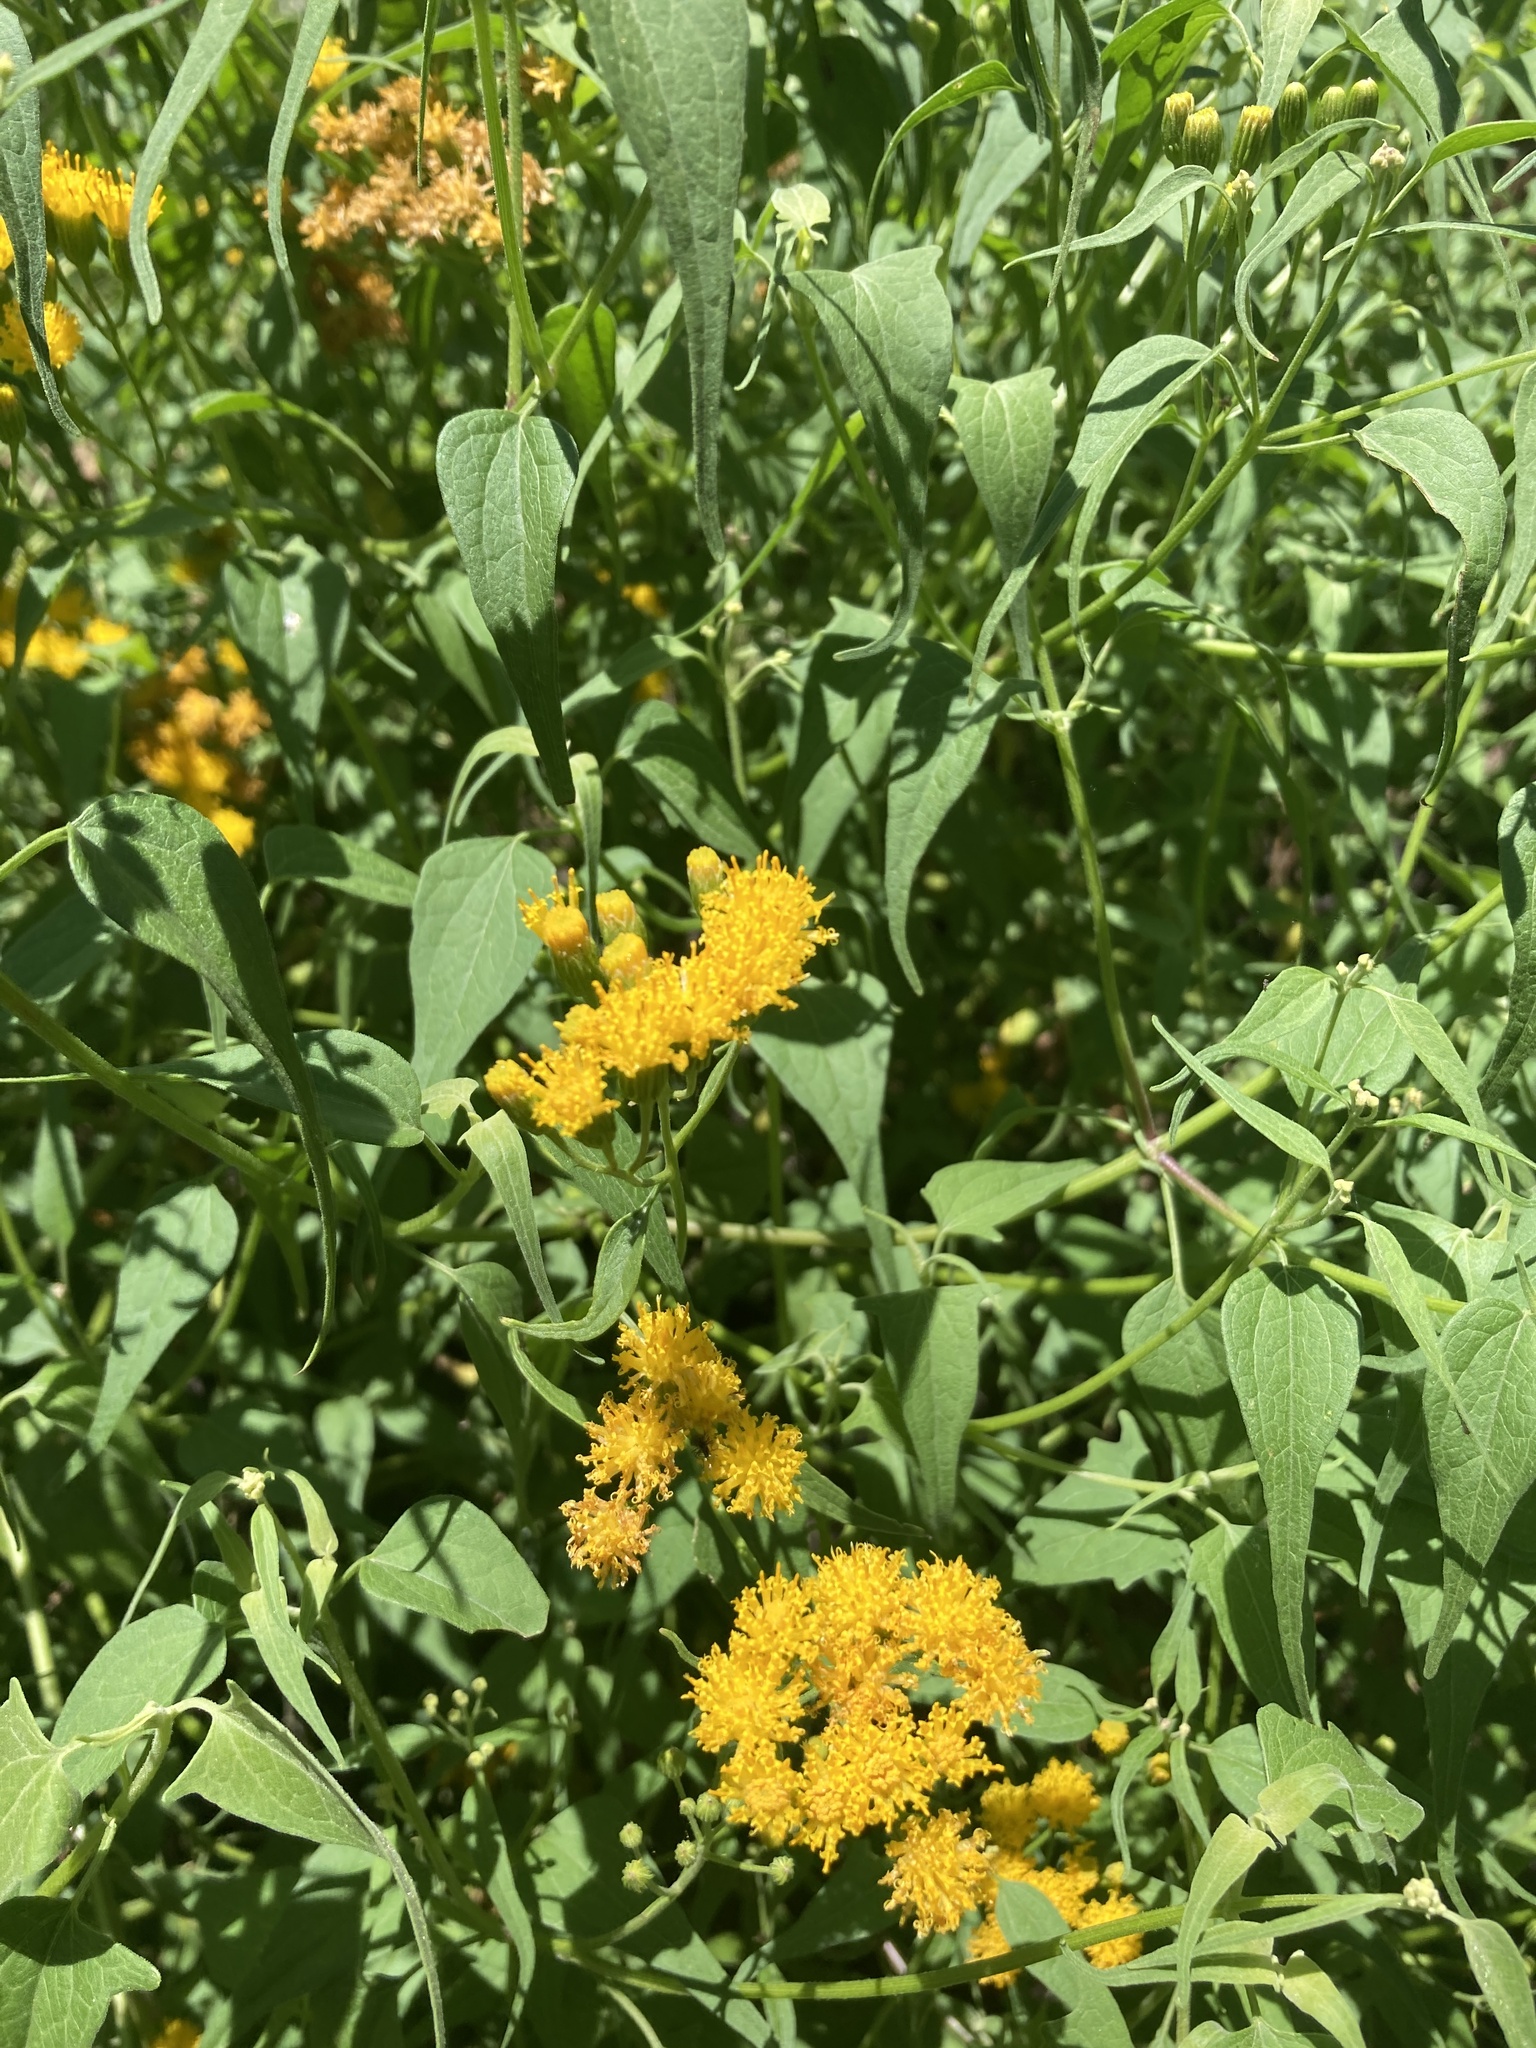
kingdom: Plantae
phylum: Tracheophyta
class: Magnoliopsida
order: Asterales
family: Asteraceae
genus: Pericome
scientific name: Pericome caudata
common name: Taperleaf
